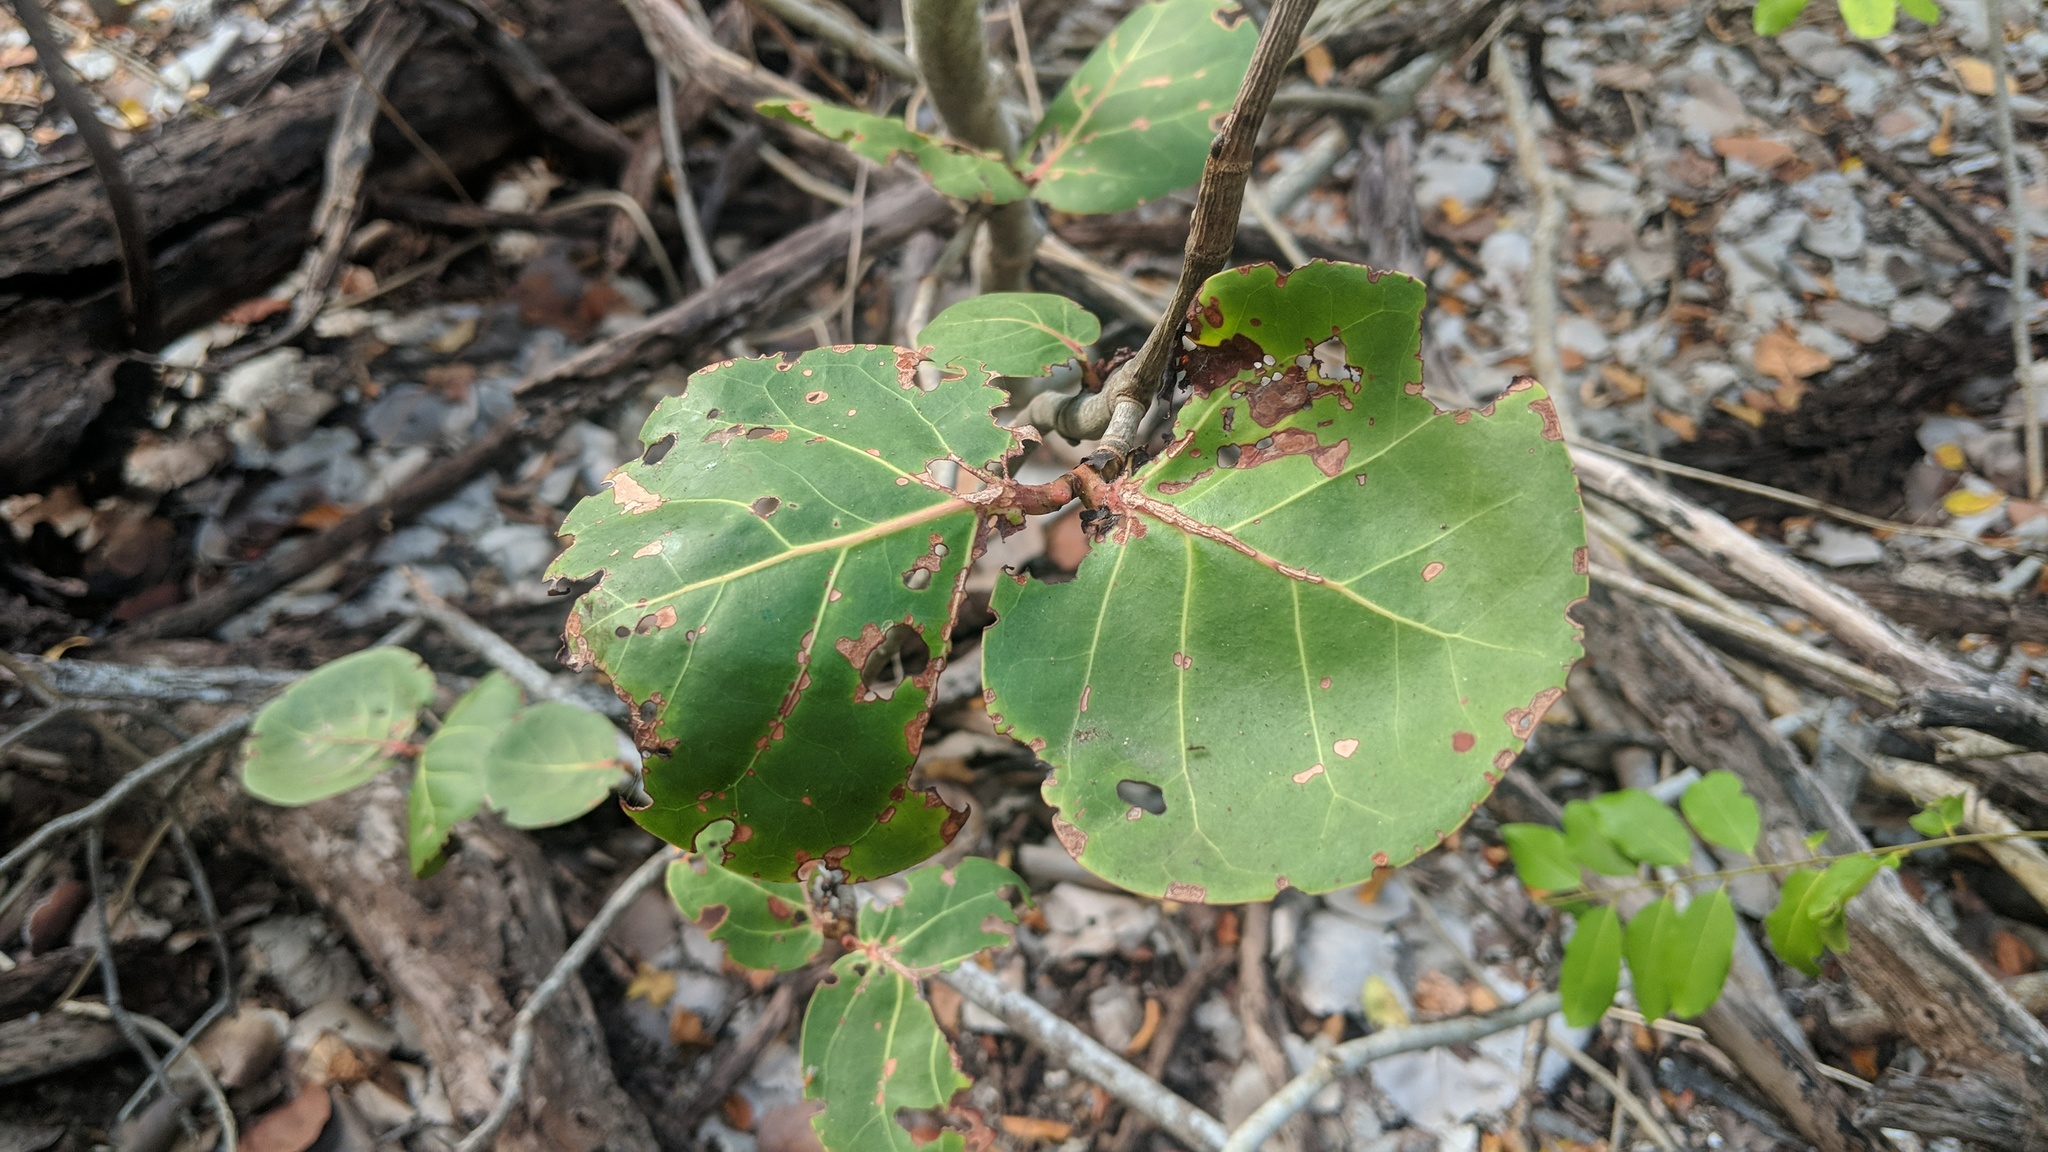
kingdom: Plantae
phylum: Tracheophyta
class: Magnoliopsida
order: Caryophyllales
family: Polygonaceae
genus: Coccoloba
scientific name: Coccoloba uvifera
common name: Seagrape
